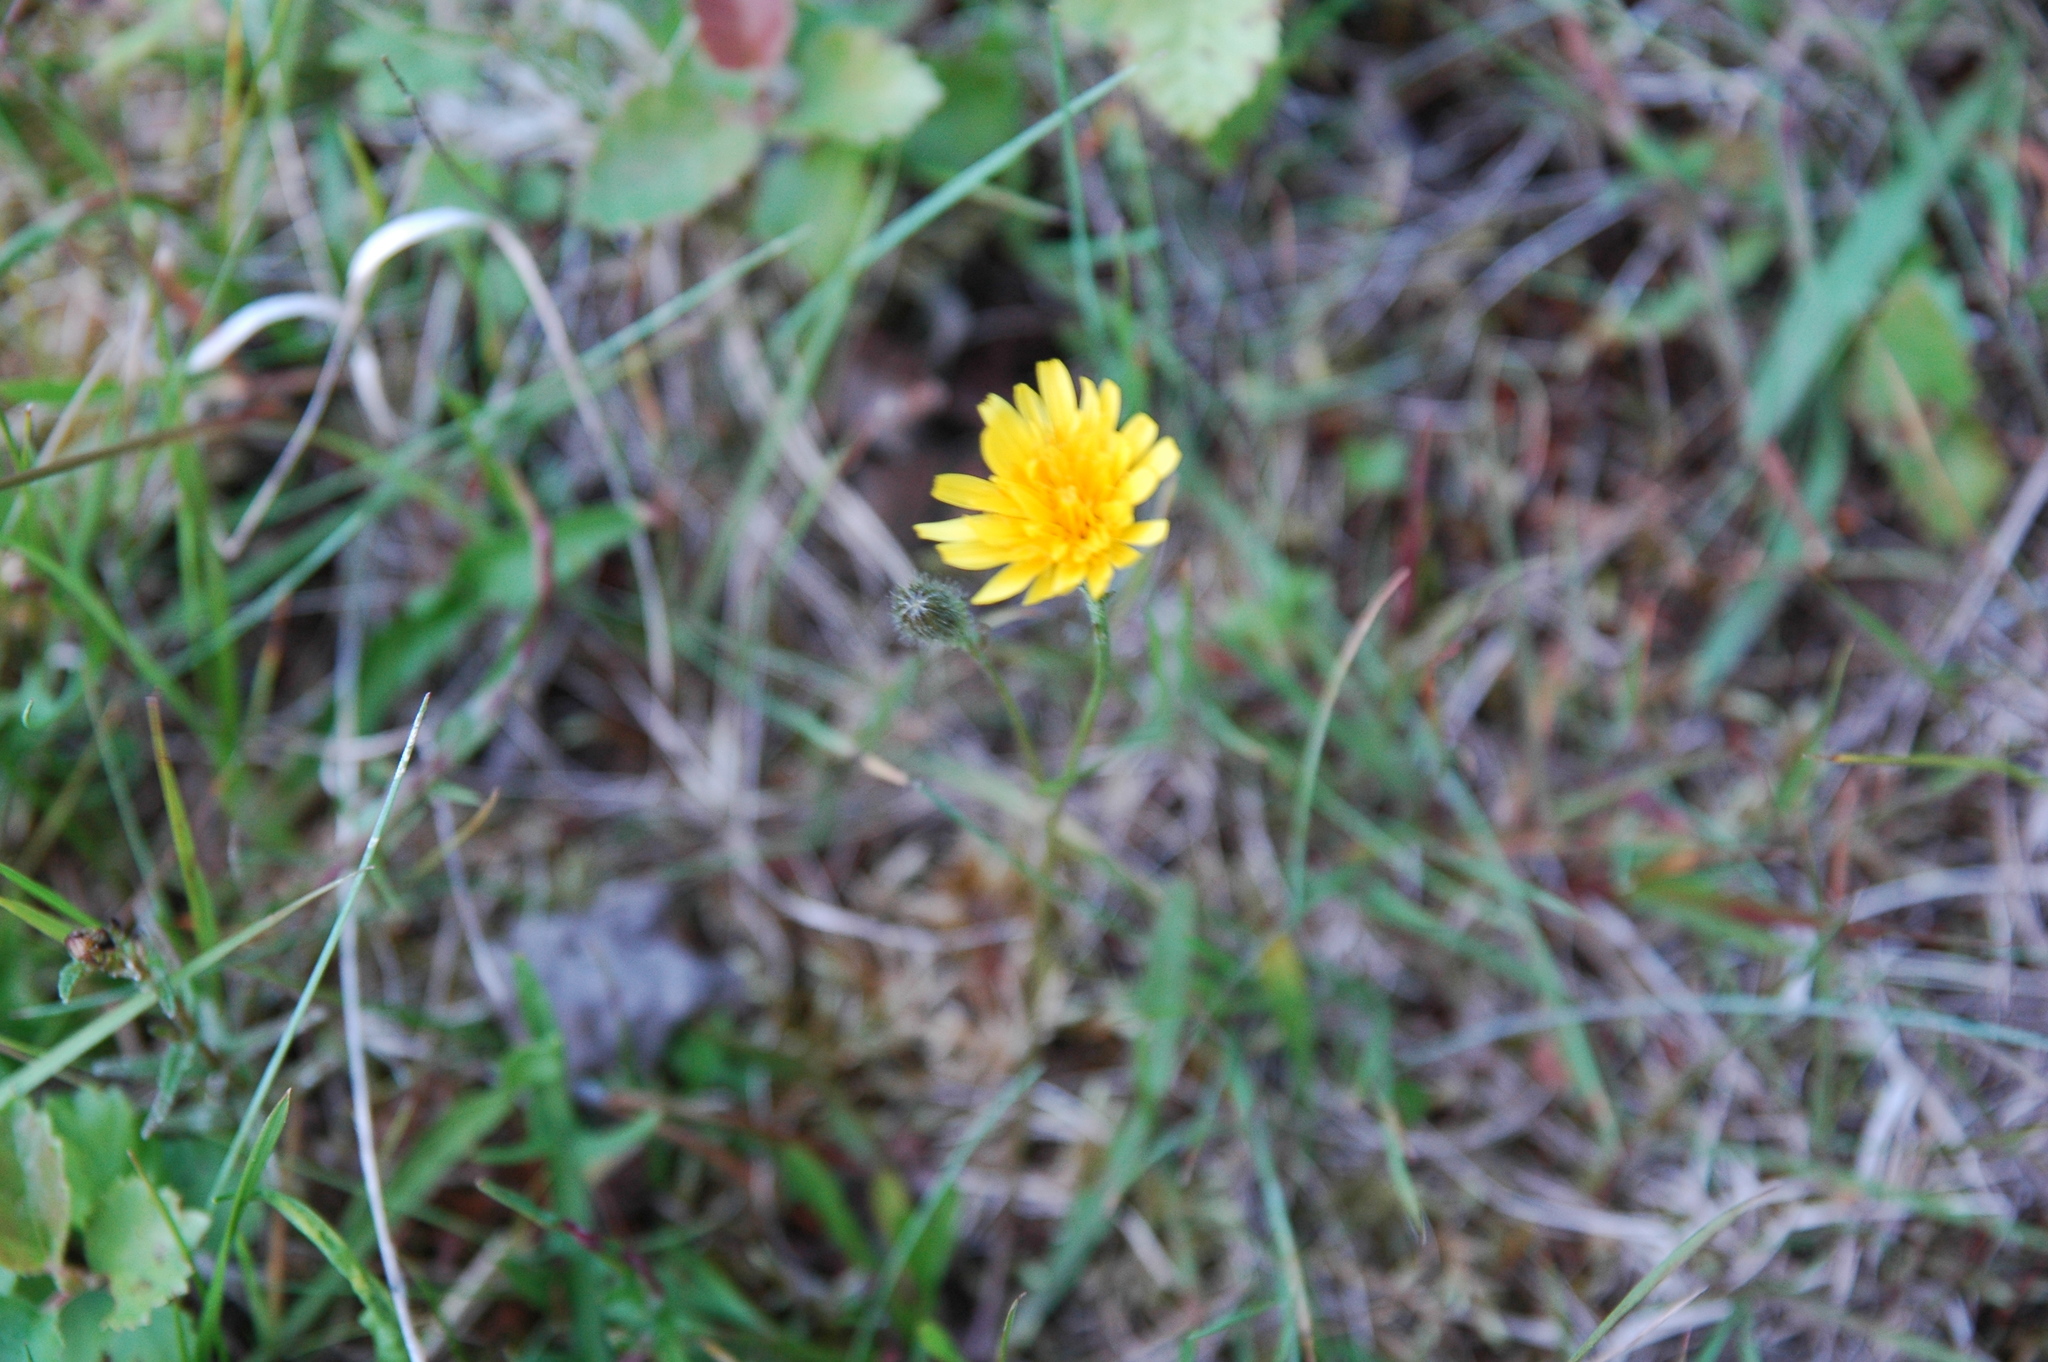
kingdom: Plantae
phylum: Tracheophyta
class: Magnoliopsida
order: Asterales
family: Asteraceae
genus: Scorzoneroides
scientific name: Scorzoneroides autumnalis
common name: Autumn hawkbit
